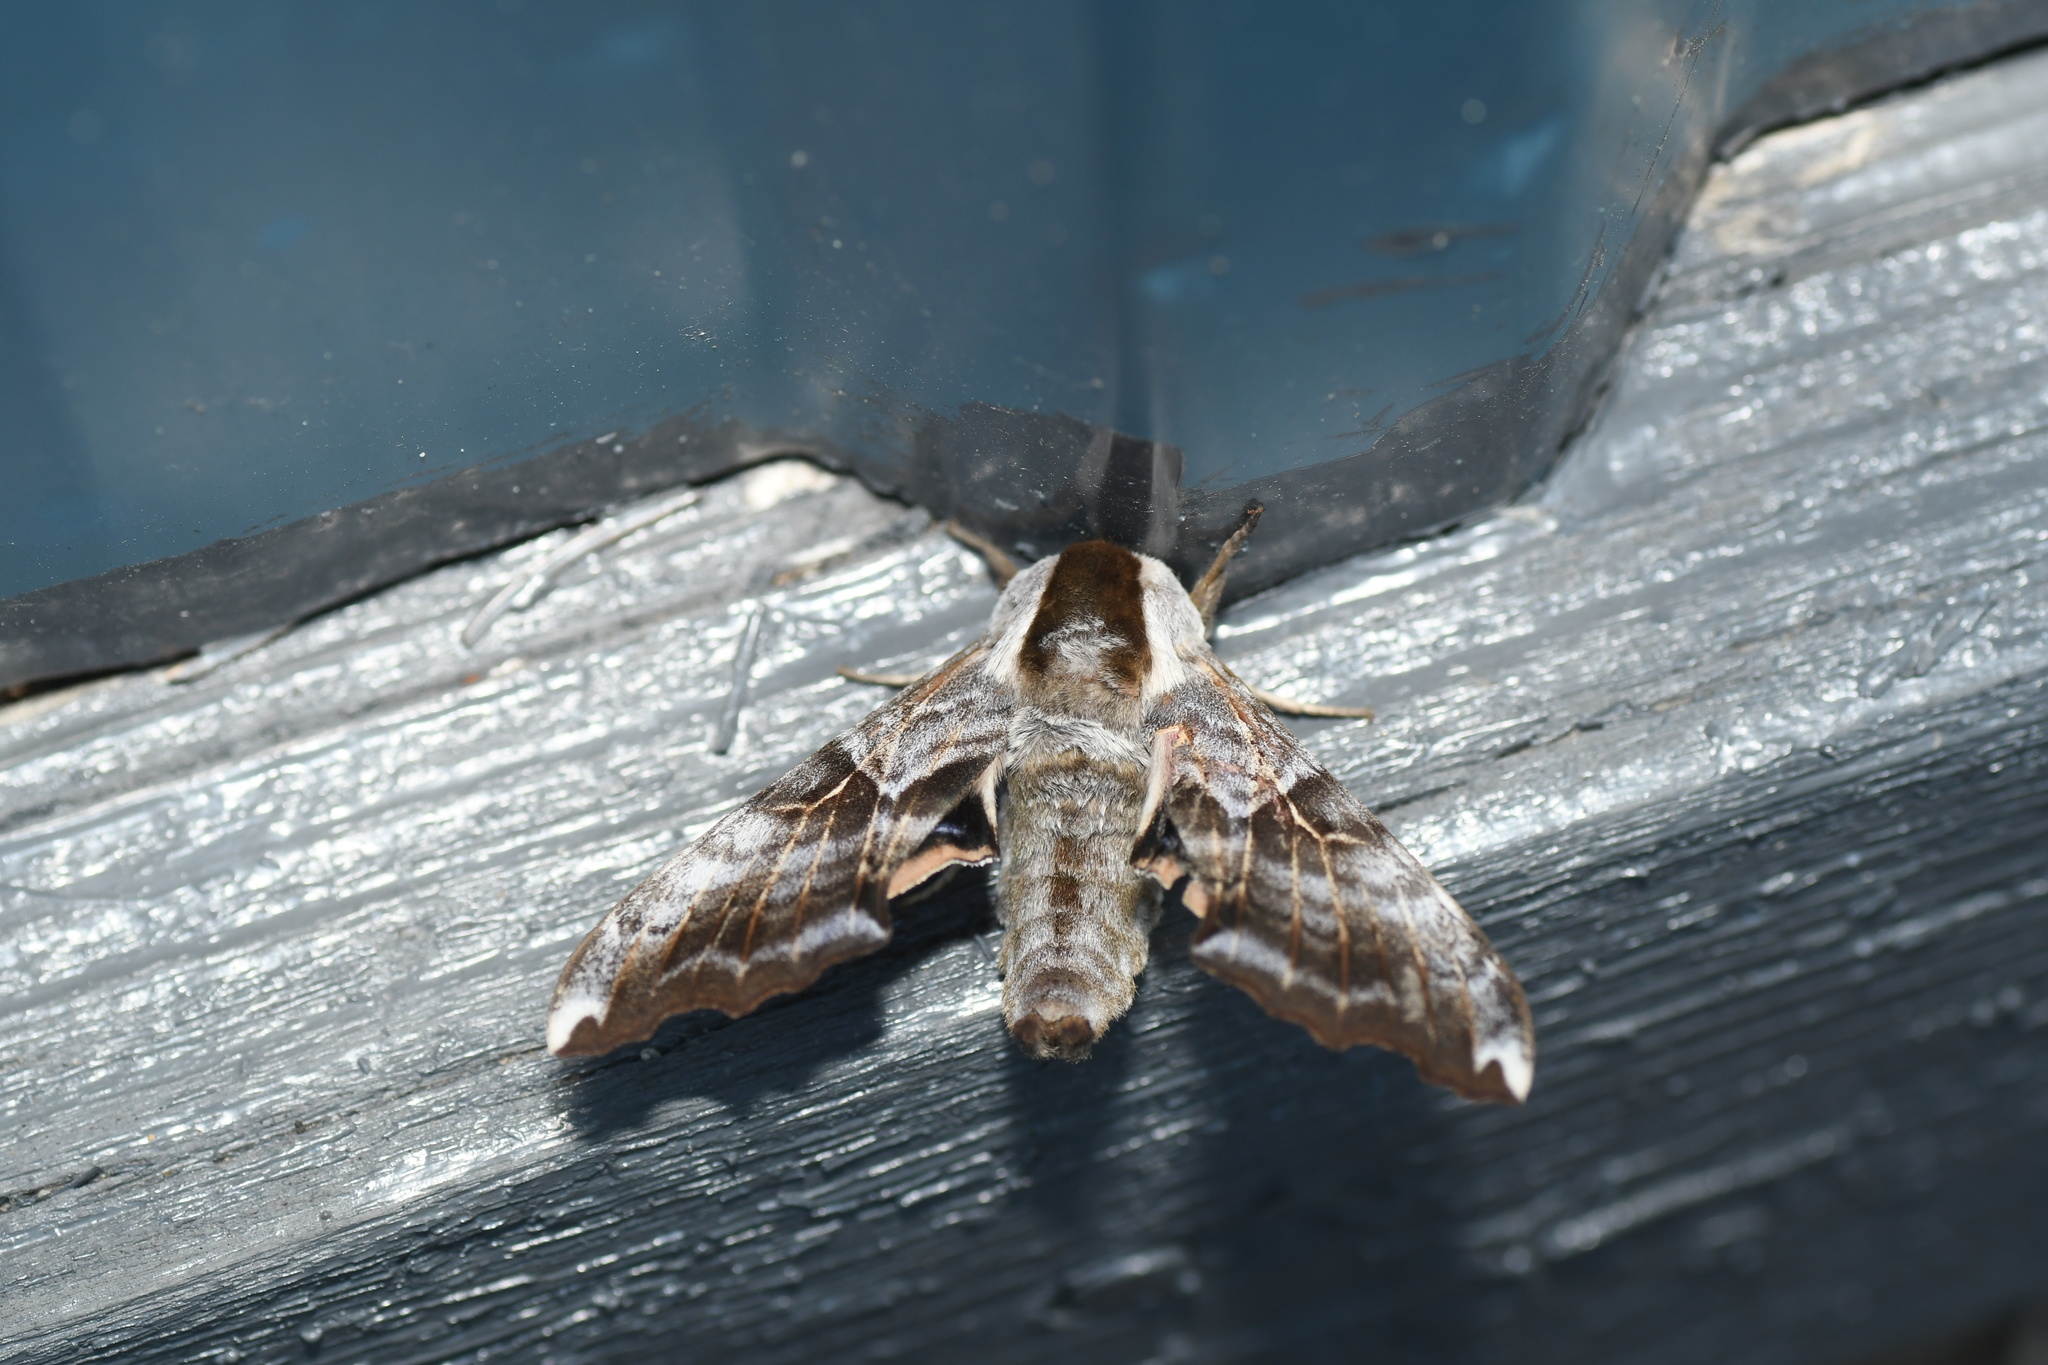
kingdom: Animalia
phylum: Arthropoda
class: Insecta
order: Lepidoptera
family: Sphingidae
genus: Smerinthus
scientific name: Smerinthus cerisyi
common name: Cerisy's sphinx moth
